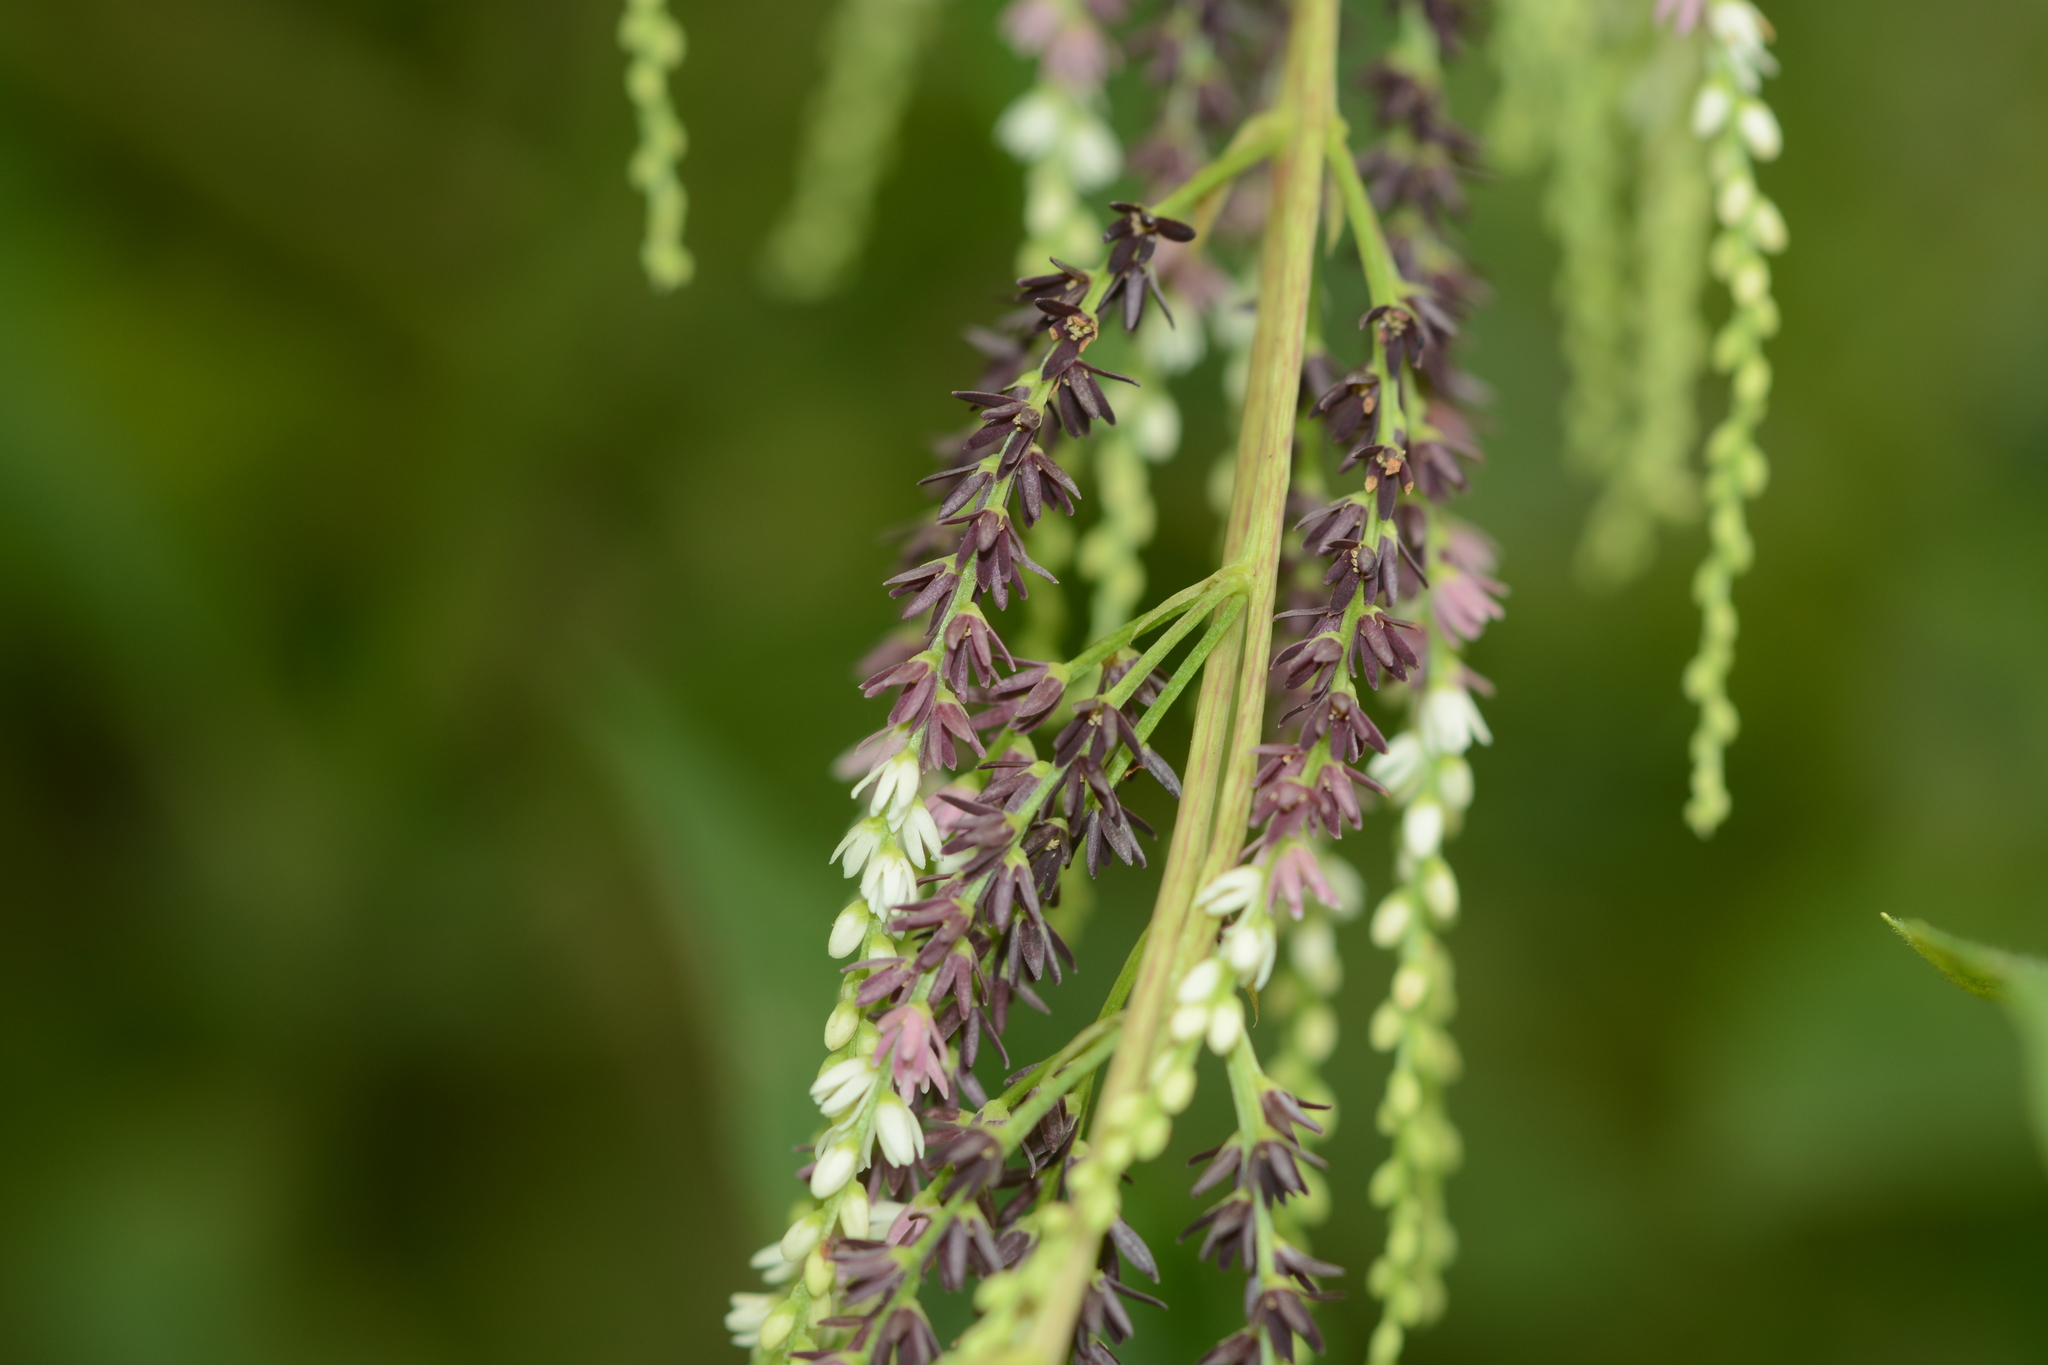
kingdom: Plantae
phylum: Tracheophyta
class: Liliopsida
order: Dioscoreales
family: Dioscoreaceae
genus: Dioscorea
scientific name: Dioscorea bulbifera
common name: Air yam
